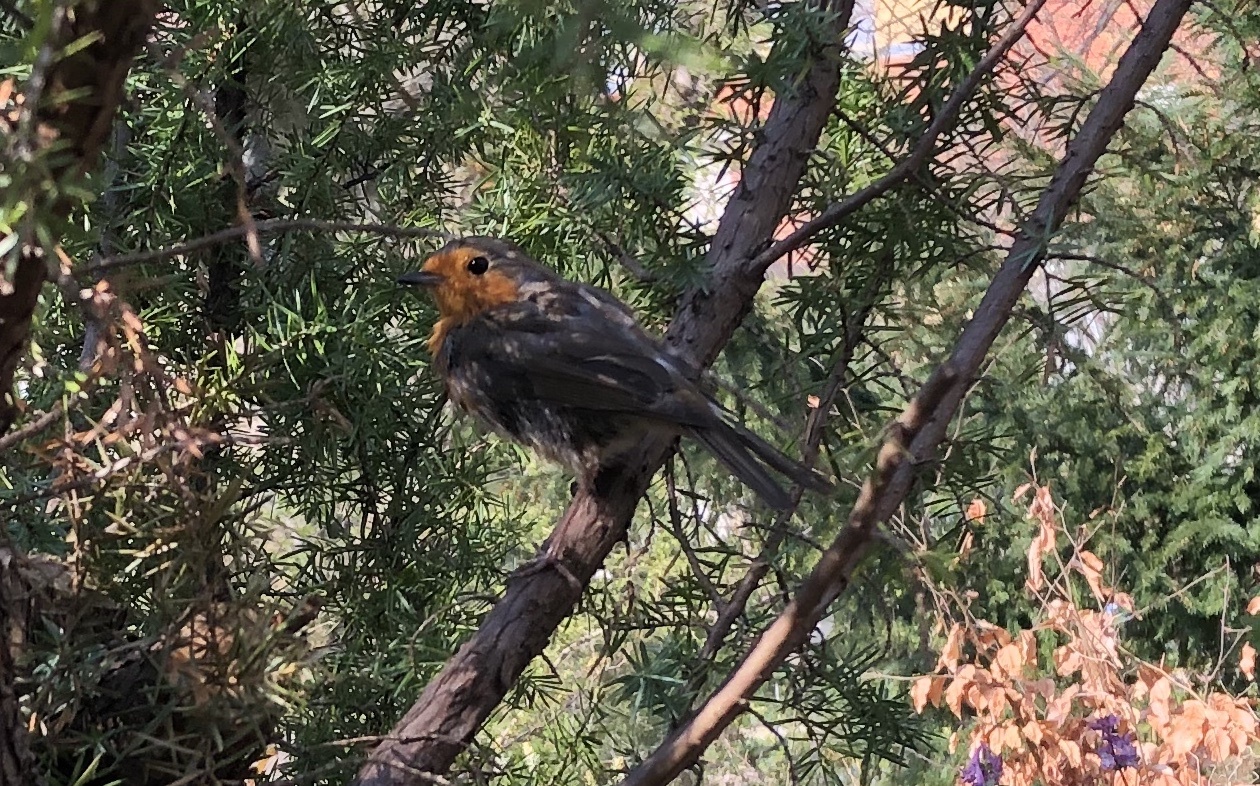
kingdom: Animalia
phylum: Chordata
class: Aves
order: Passeriformes
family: Muscicapidae
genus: Erithacus
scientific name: Erithacus rubecula
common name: European robin
